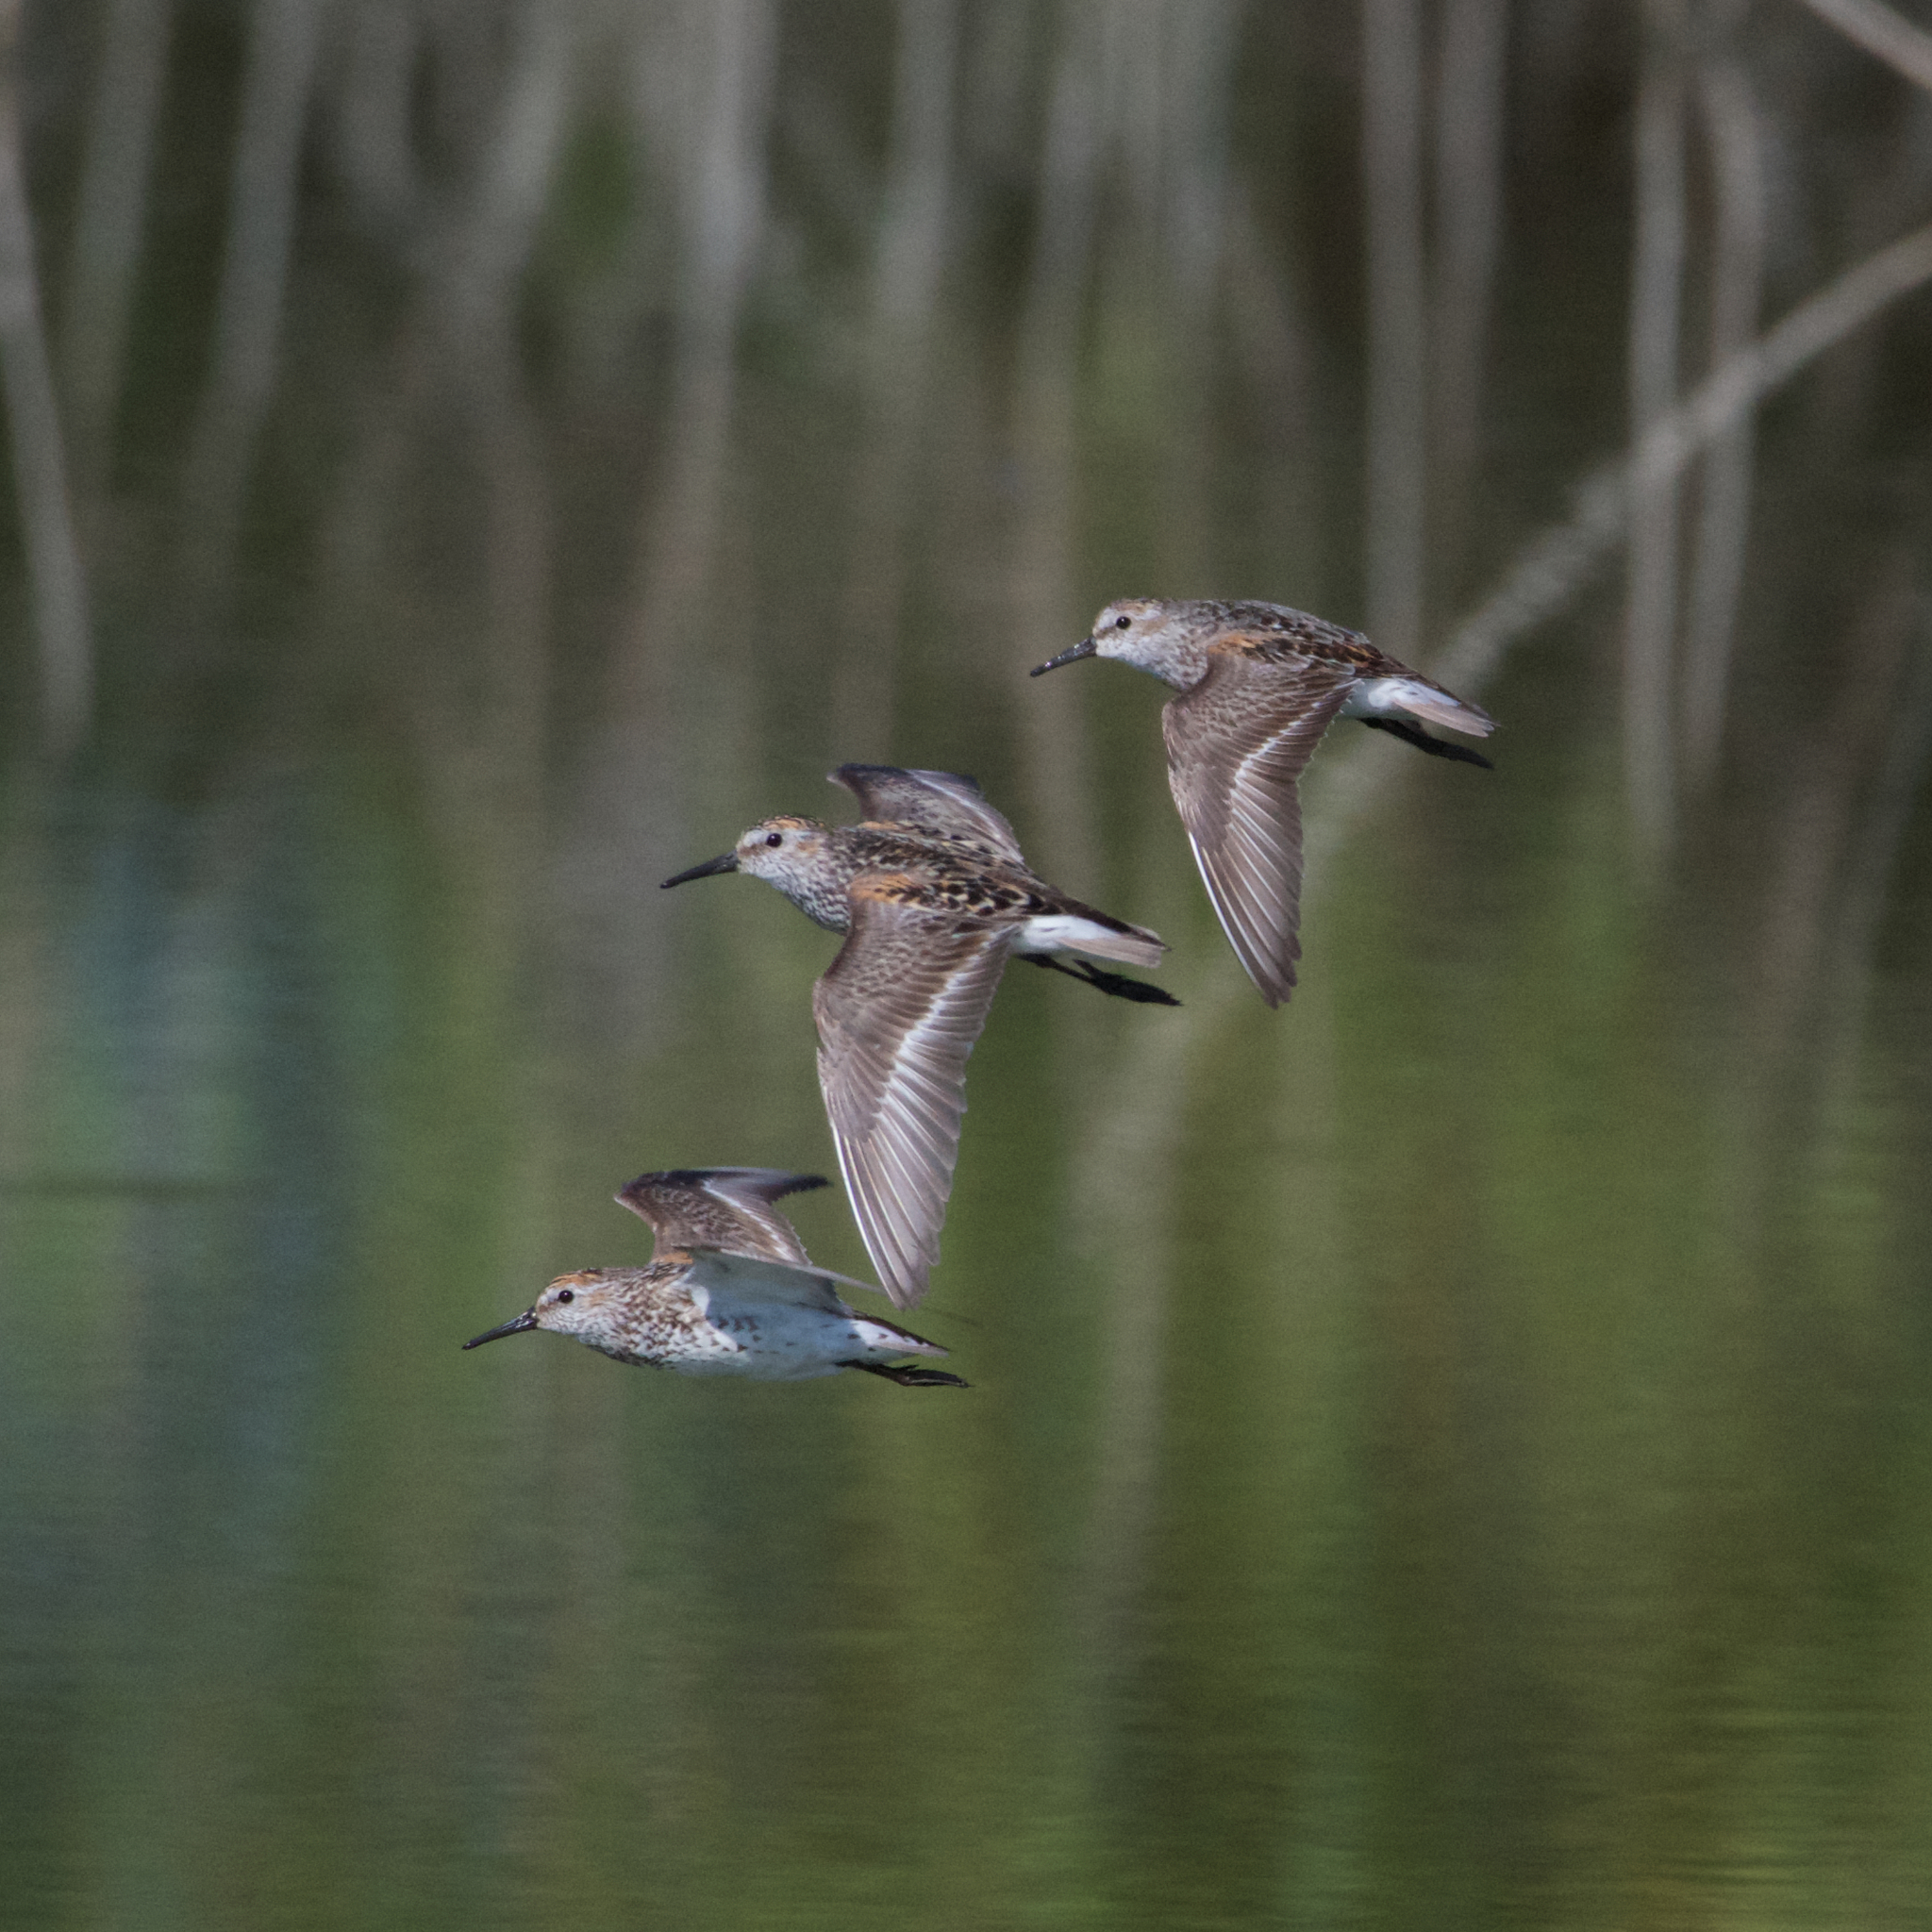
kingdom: Animalia
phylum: Chordata
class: Aves
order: Charadriiformes
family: Scolopacidae
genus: Calidris
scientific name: Calidris mauri
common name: Western sandpiper
